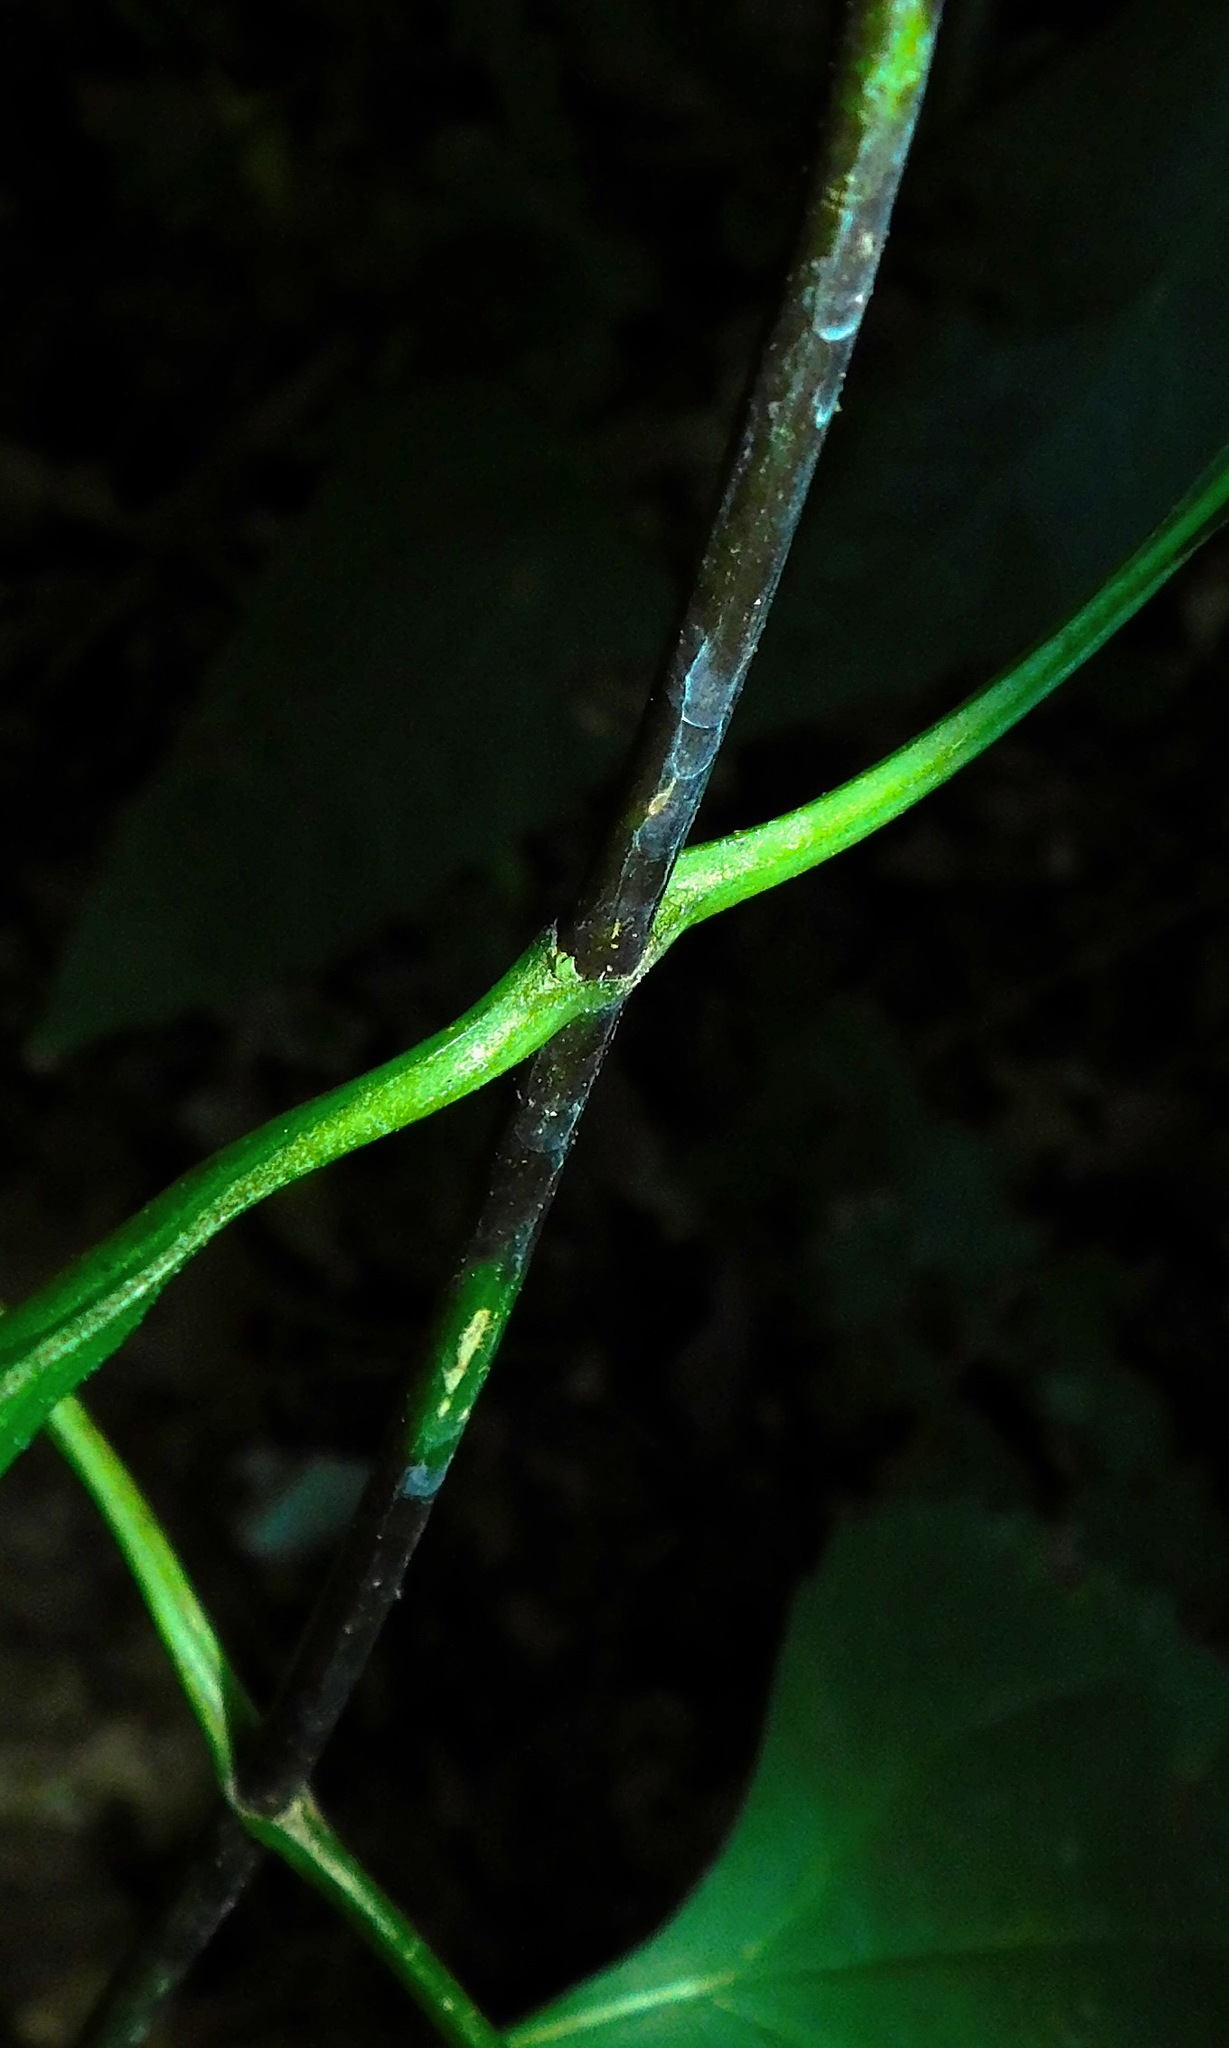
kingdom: Plantae
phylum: Tracheophyta
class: Magnoliopsida
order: Asterales
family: Asteraceae
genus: Helianthus
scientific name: Helianthus decapetalus
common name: Thin-leaved sunflower
